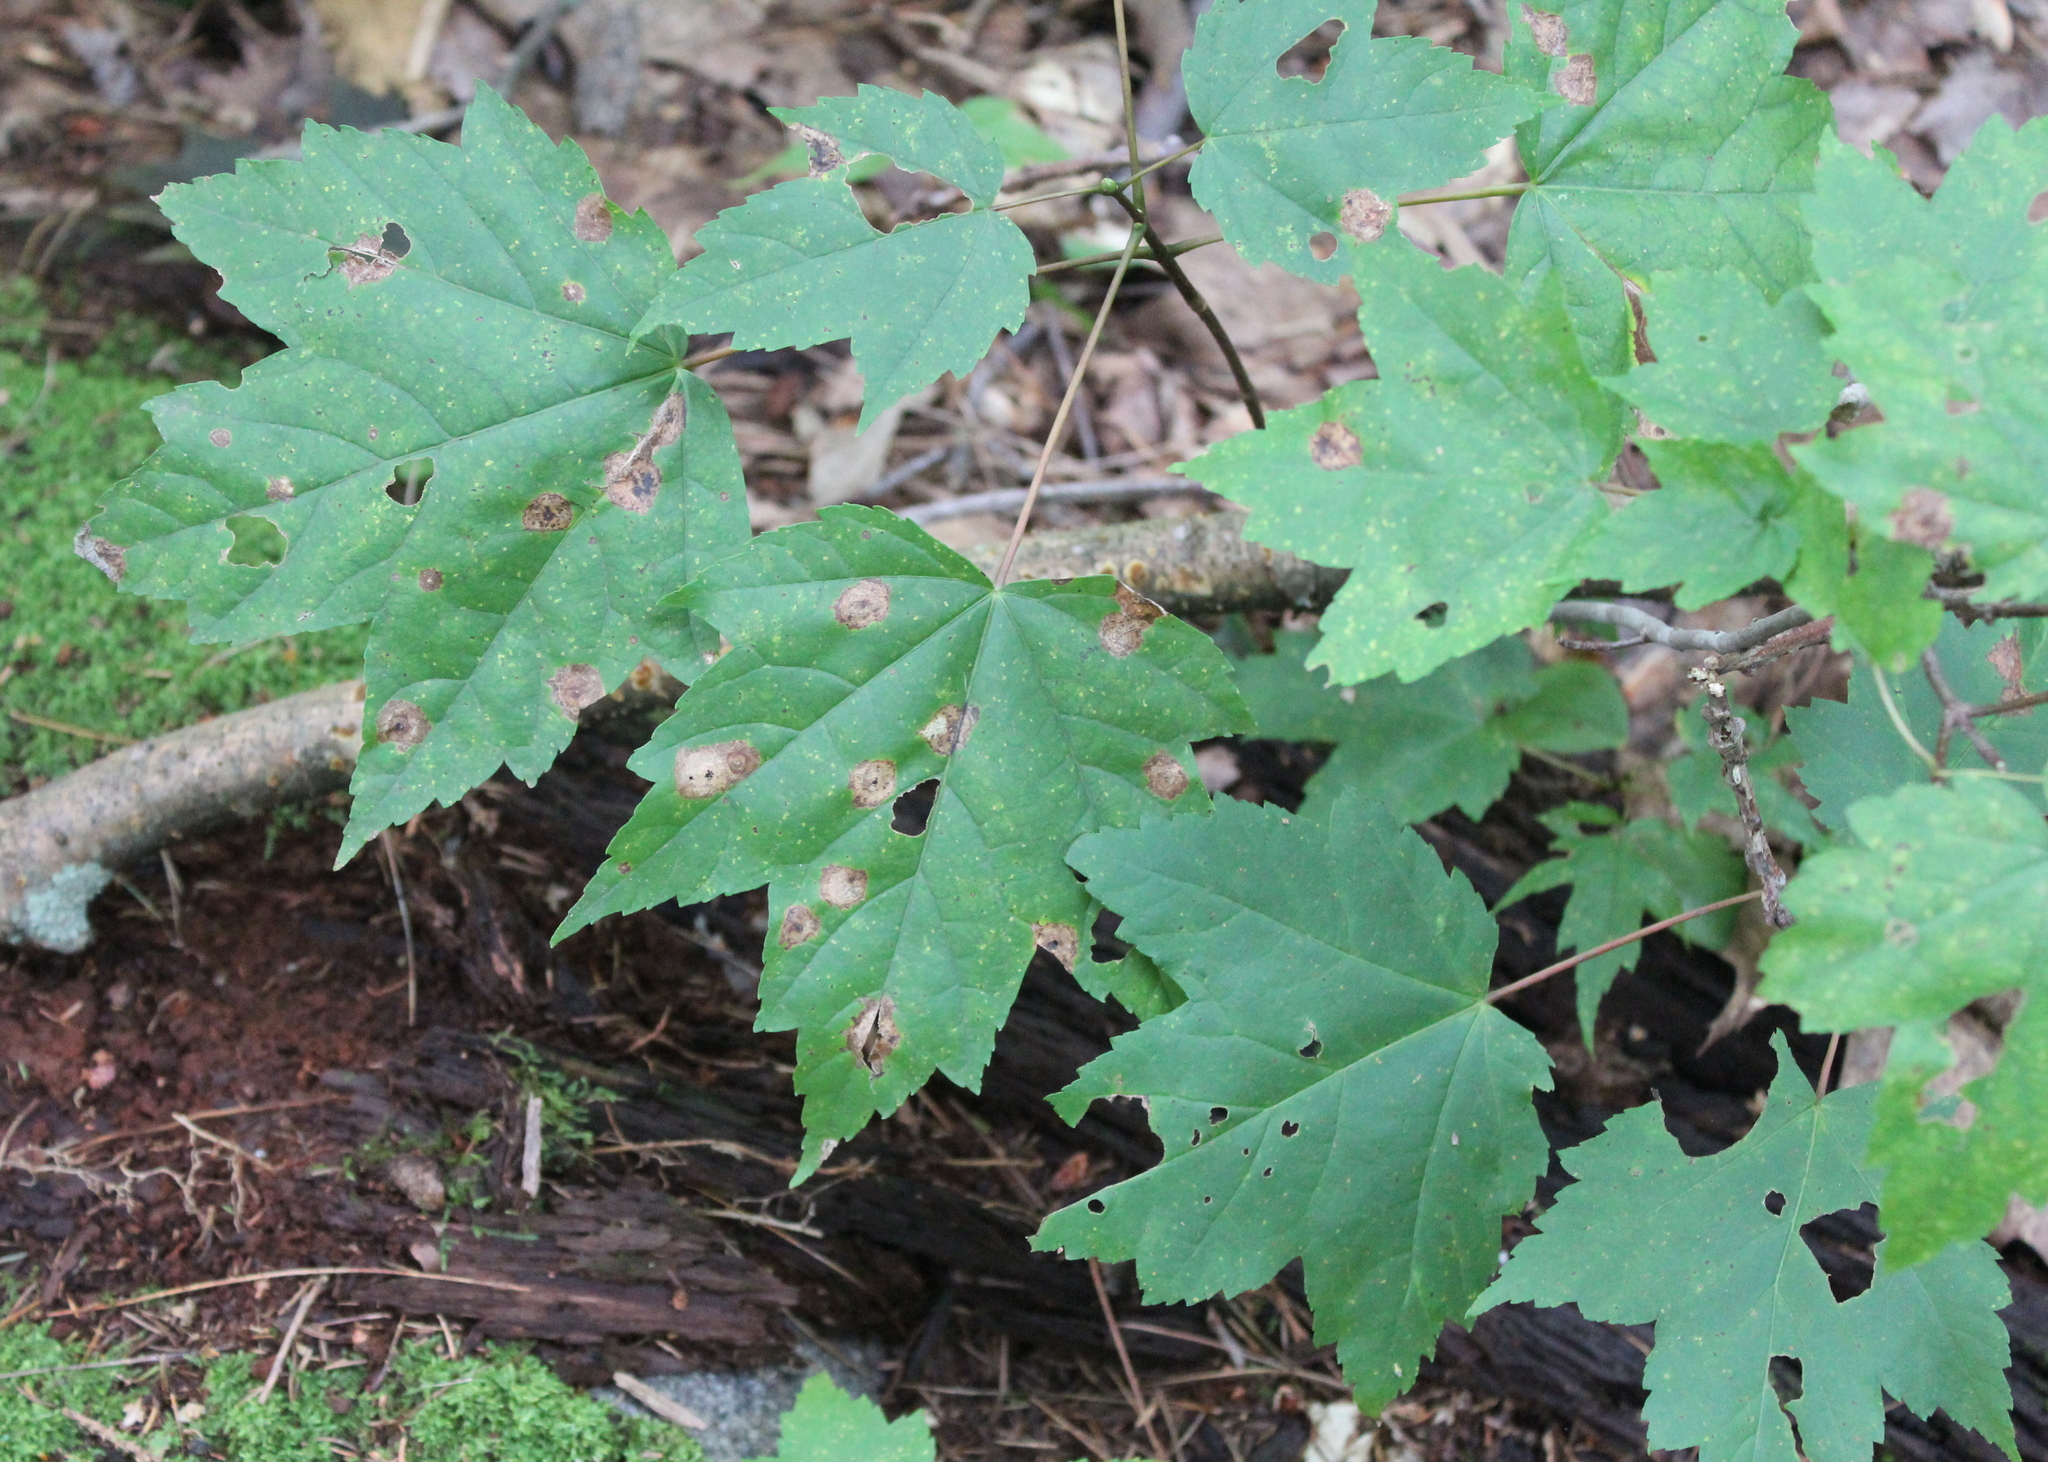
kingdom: Plantae
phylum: Tracheophyta
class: Magnoliopsida
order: Sapindales
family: Sapindaceae
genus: Acer
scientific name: Acer rubrum
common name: Red maple
